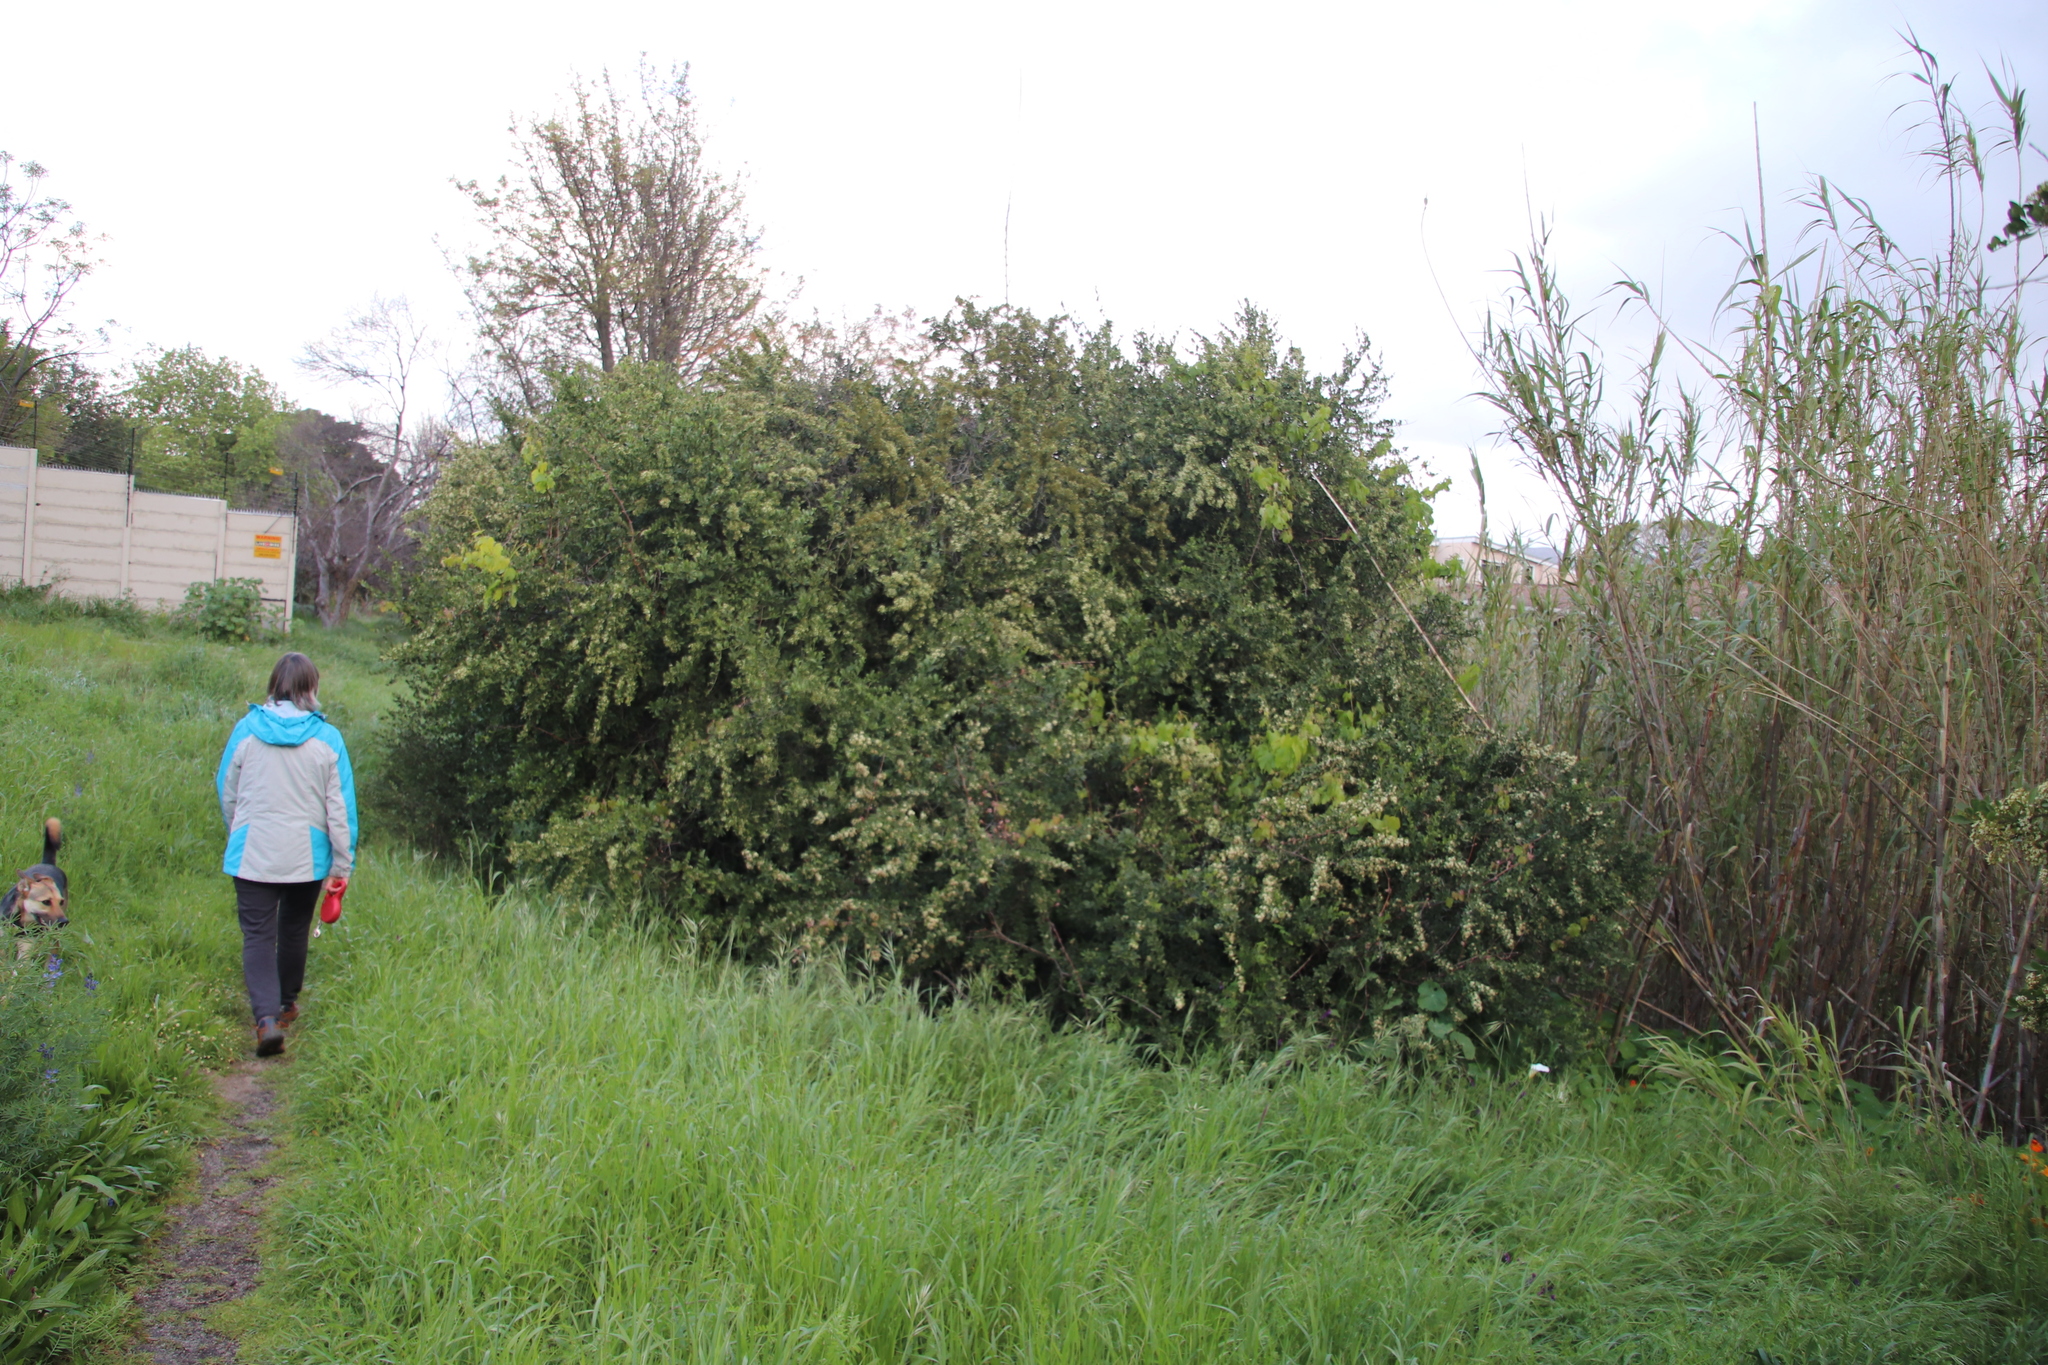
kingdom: Plantae
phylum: Tracheophyta
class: Magnoliopsida
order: Celastrales
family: Celastraceae
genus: Gymnosporia
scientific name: Gymnosporia buxifolia
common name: Common spike-thorn
